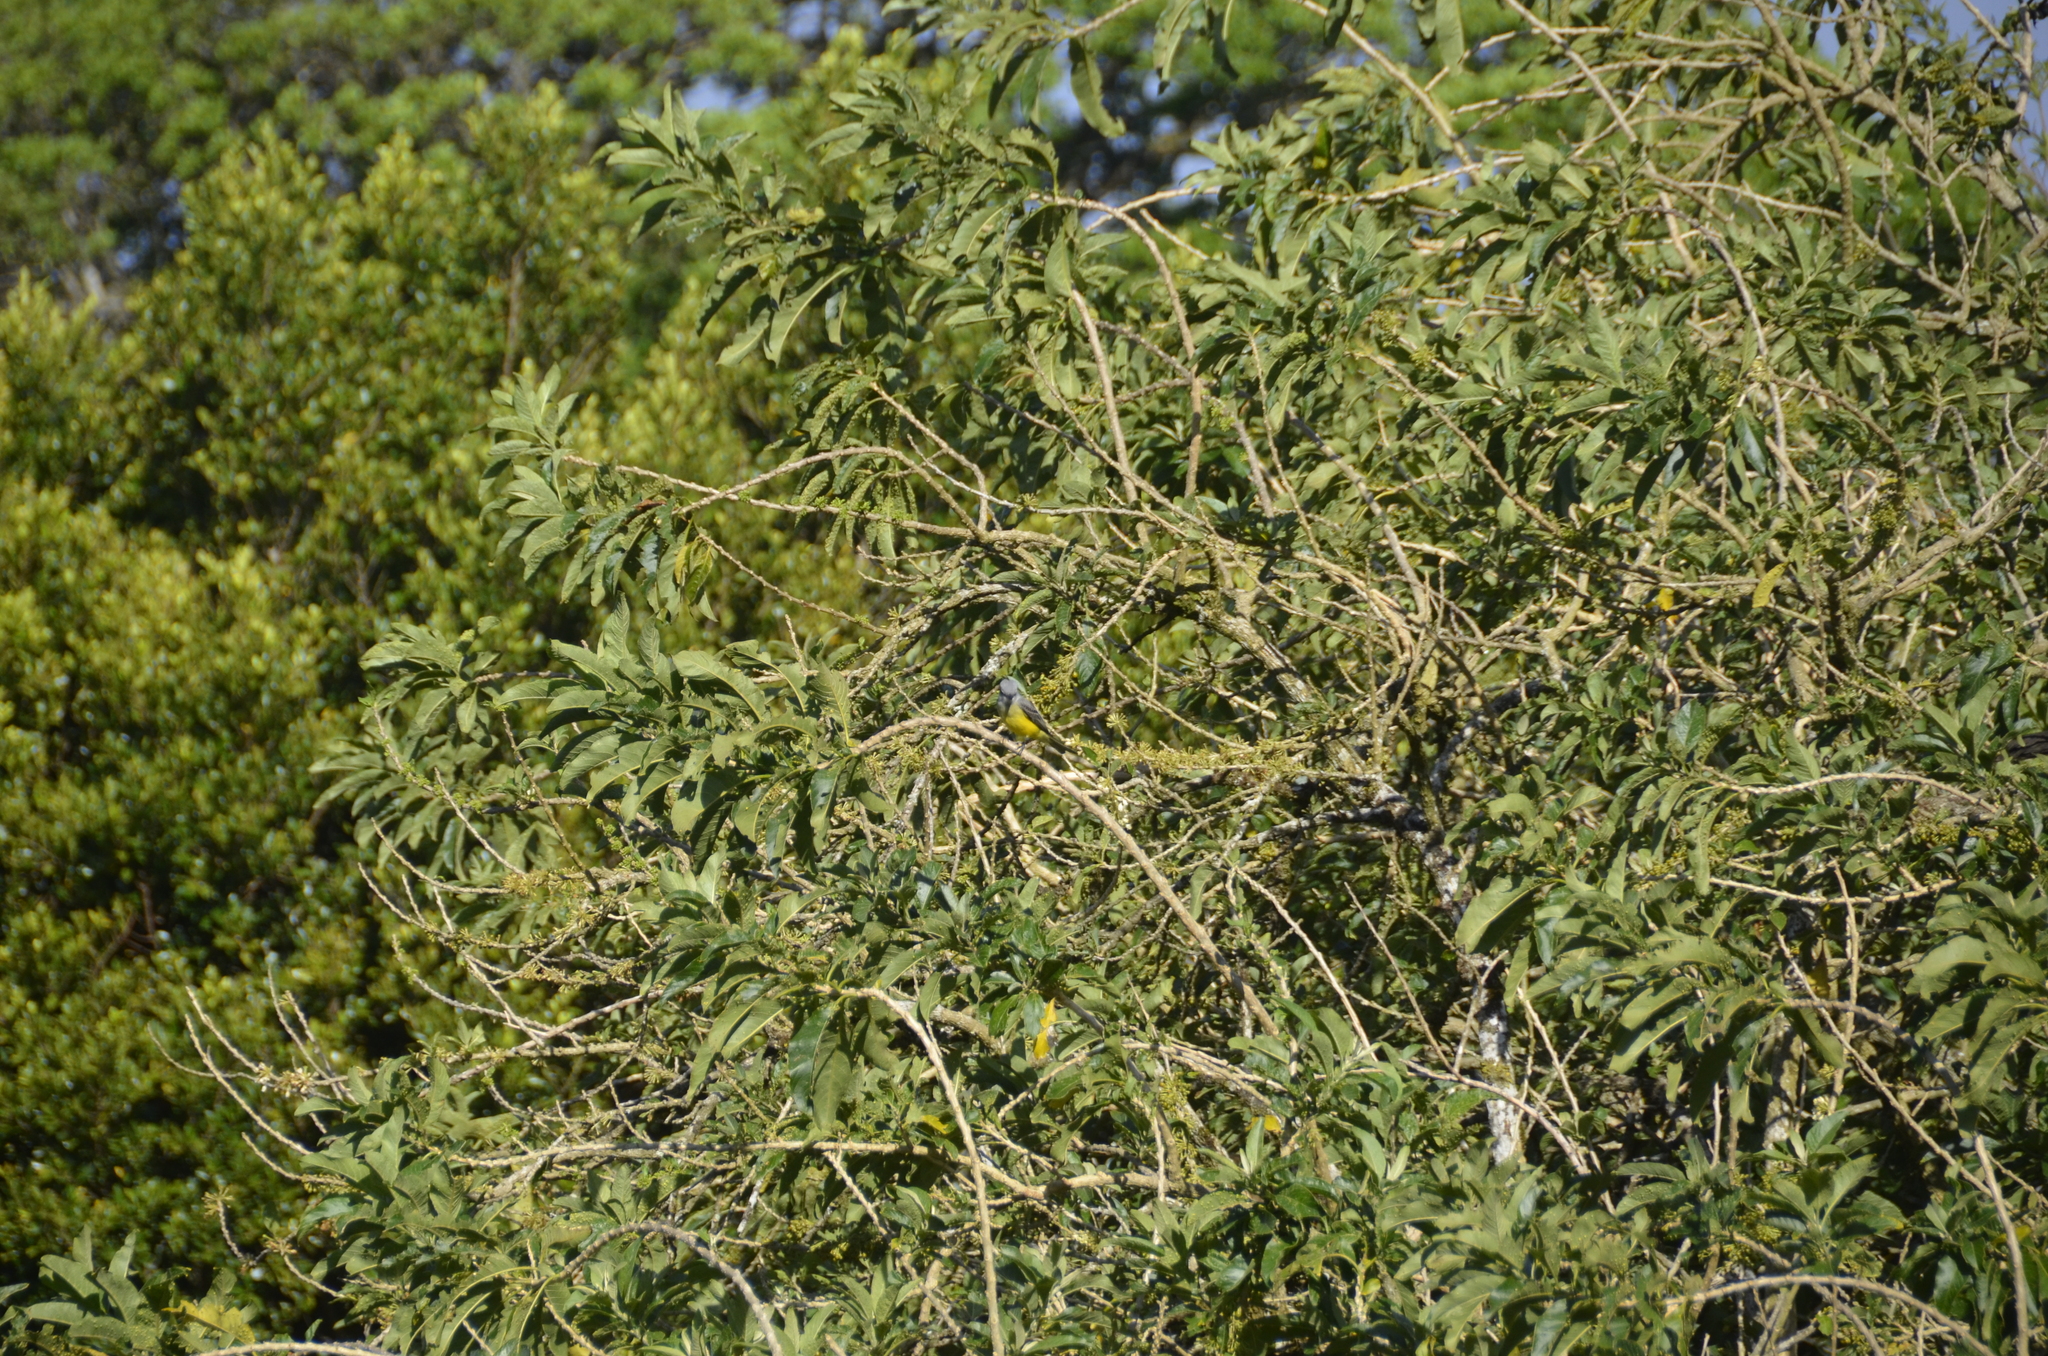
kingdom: Animalia
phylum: Chordata
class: Aves
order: Passeriformes
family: Tyrannidae
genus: Tyrannus
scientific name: Tyrannus melancholicus
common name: Tropical kingbird
